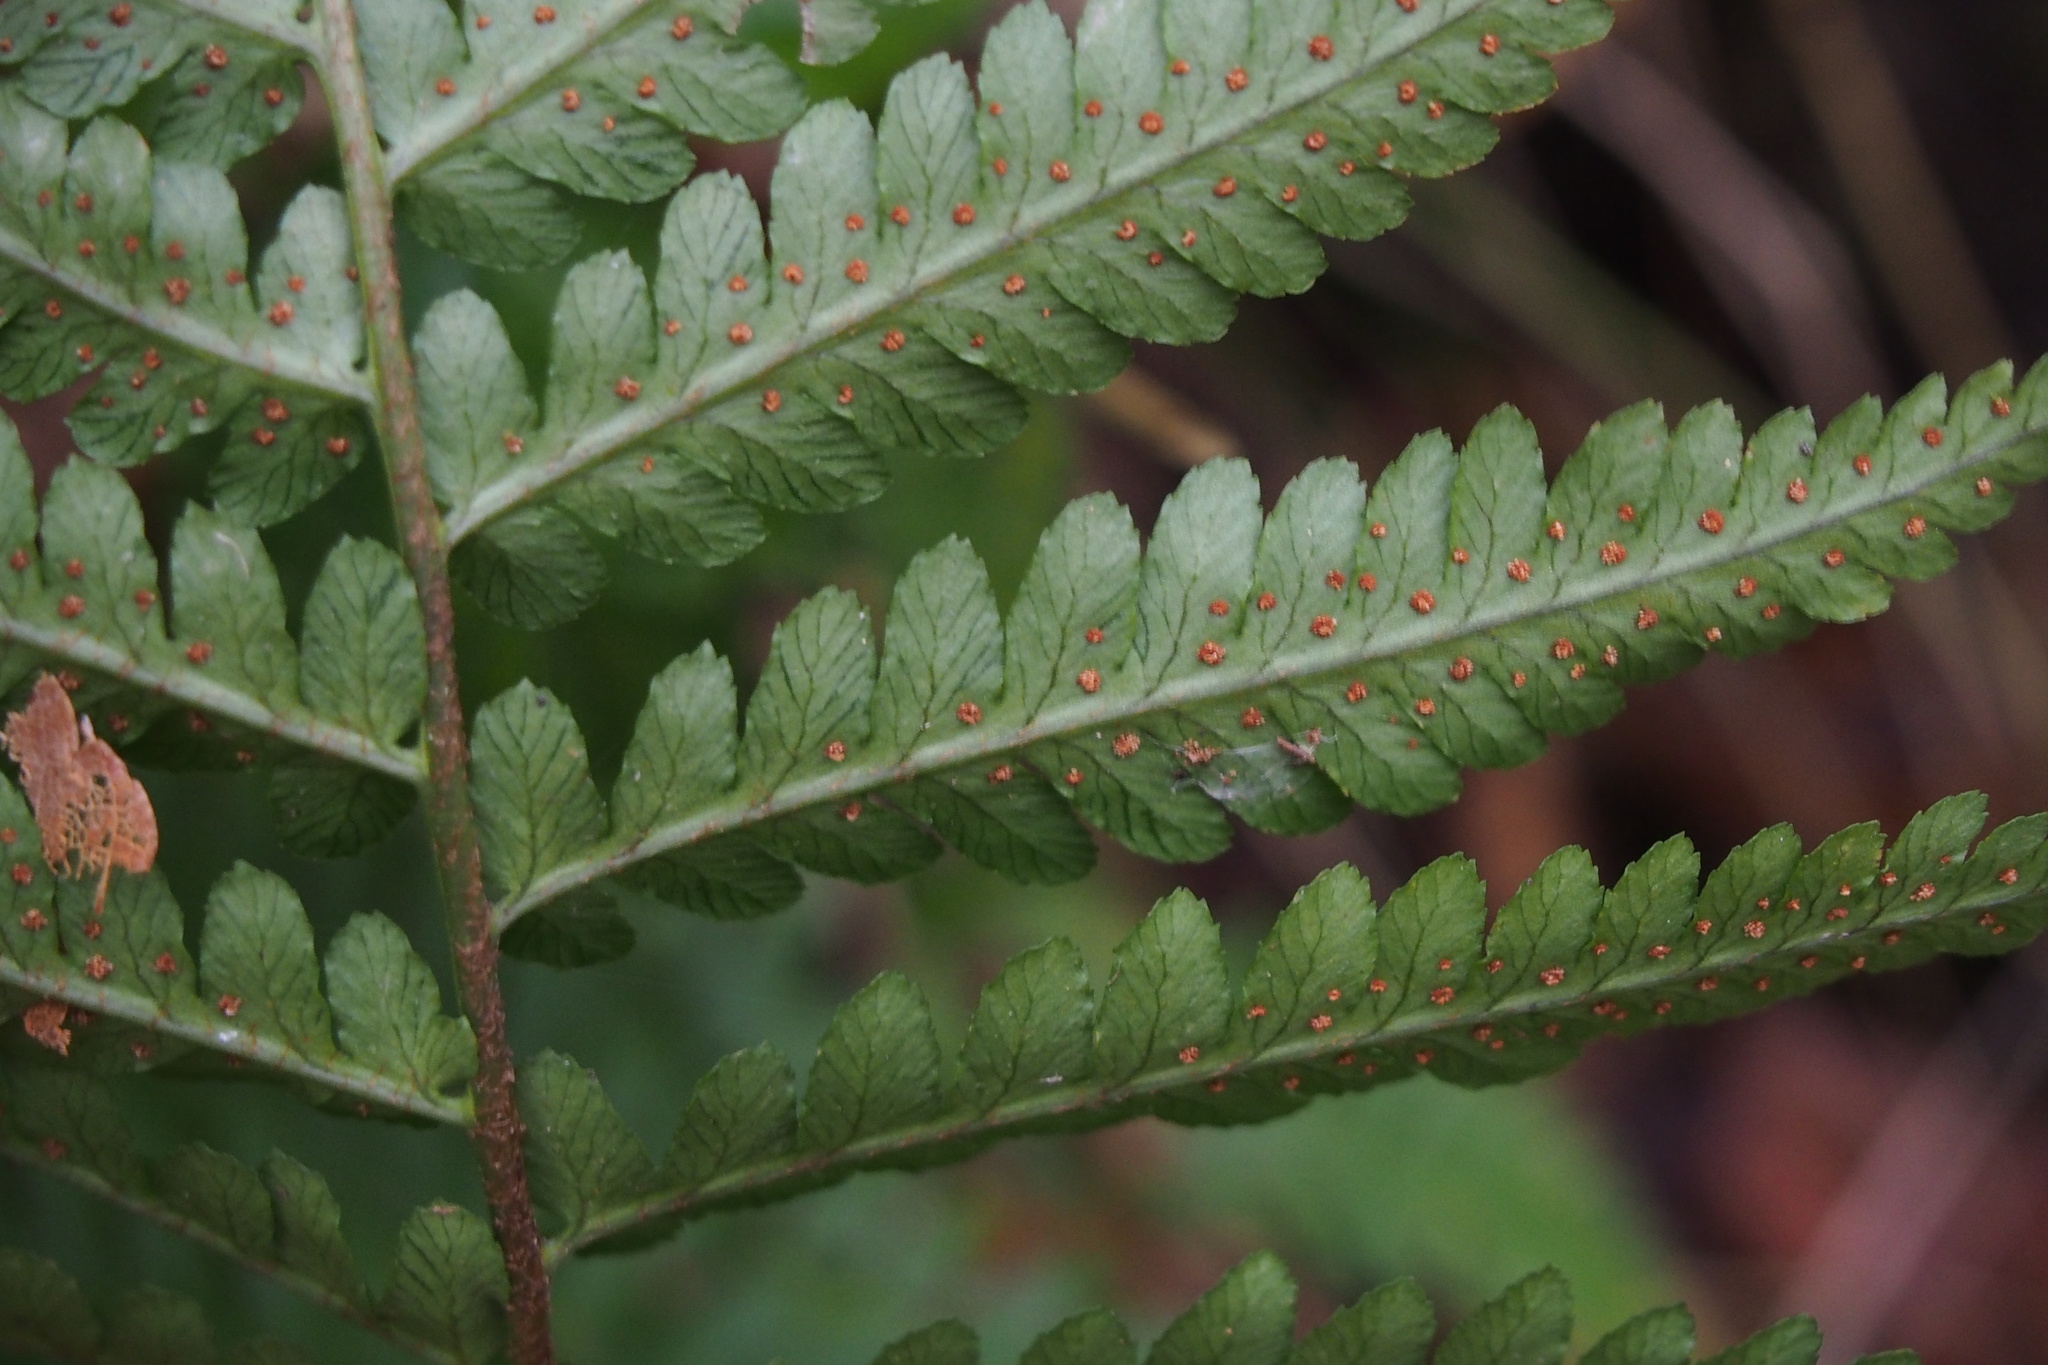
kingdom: Plantae
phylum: Tracheophyta
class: Polypodiopsida
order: Polypodiales
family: Dryopteridaceae
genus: Dryopteris
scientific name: Dryopteris uniformis
